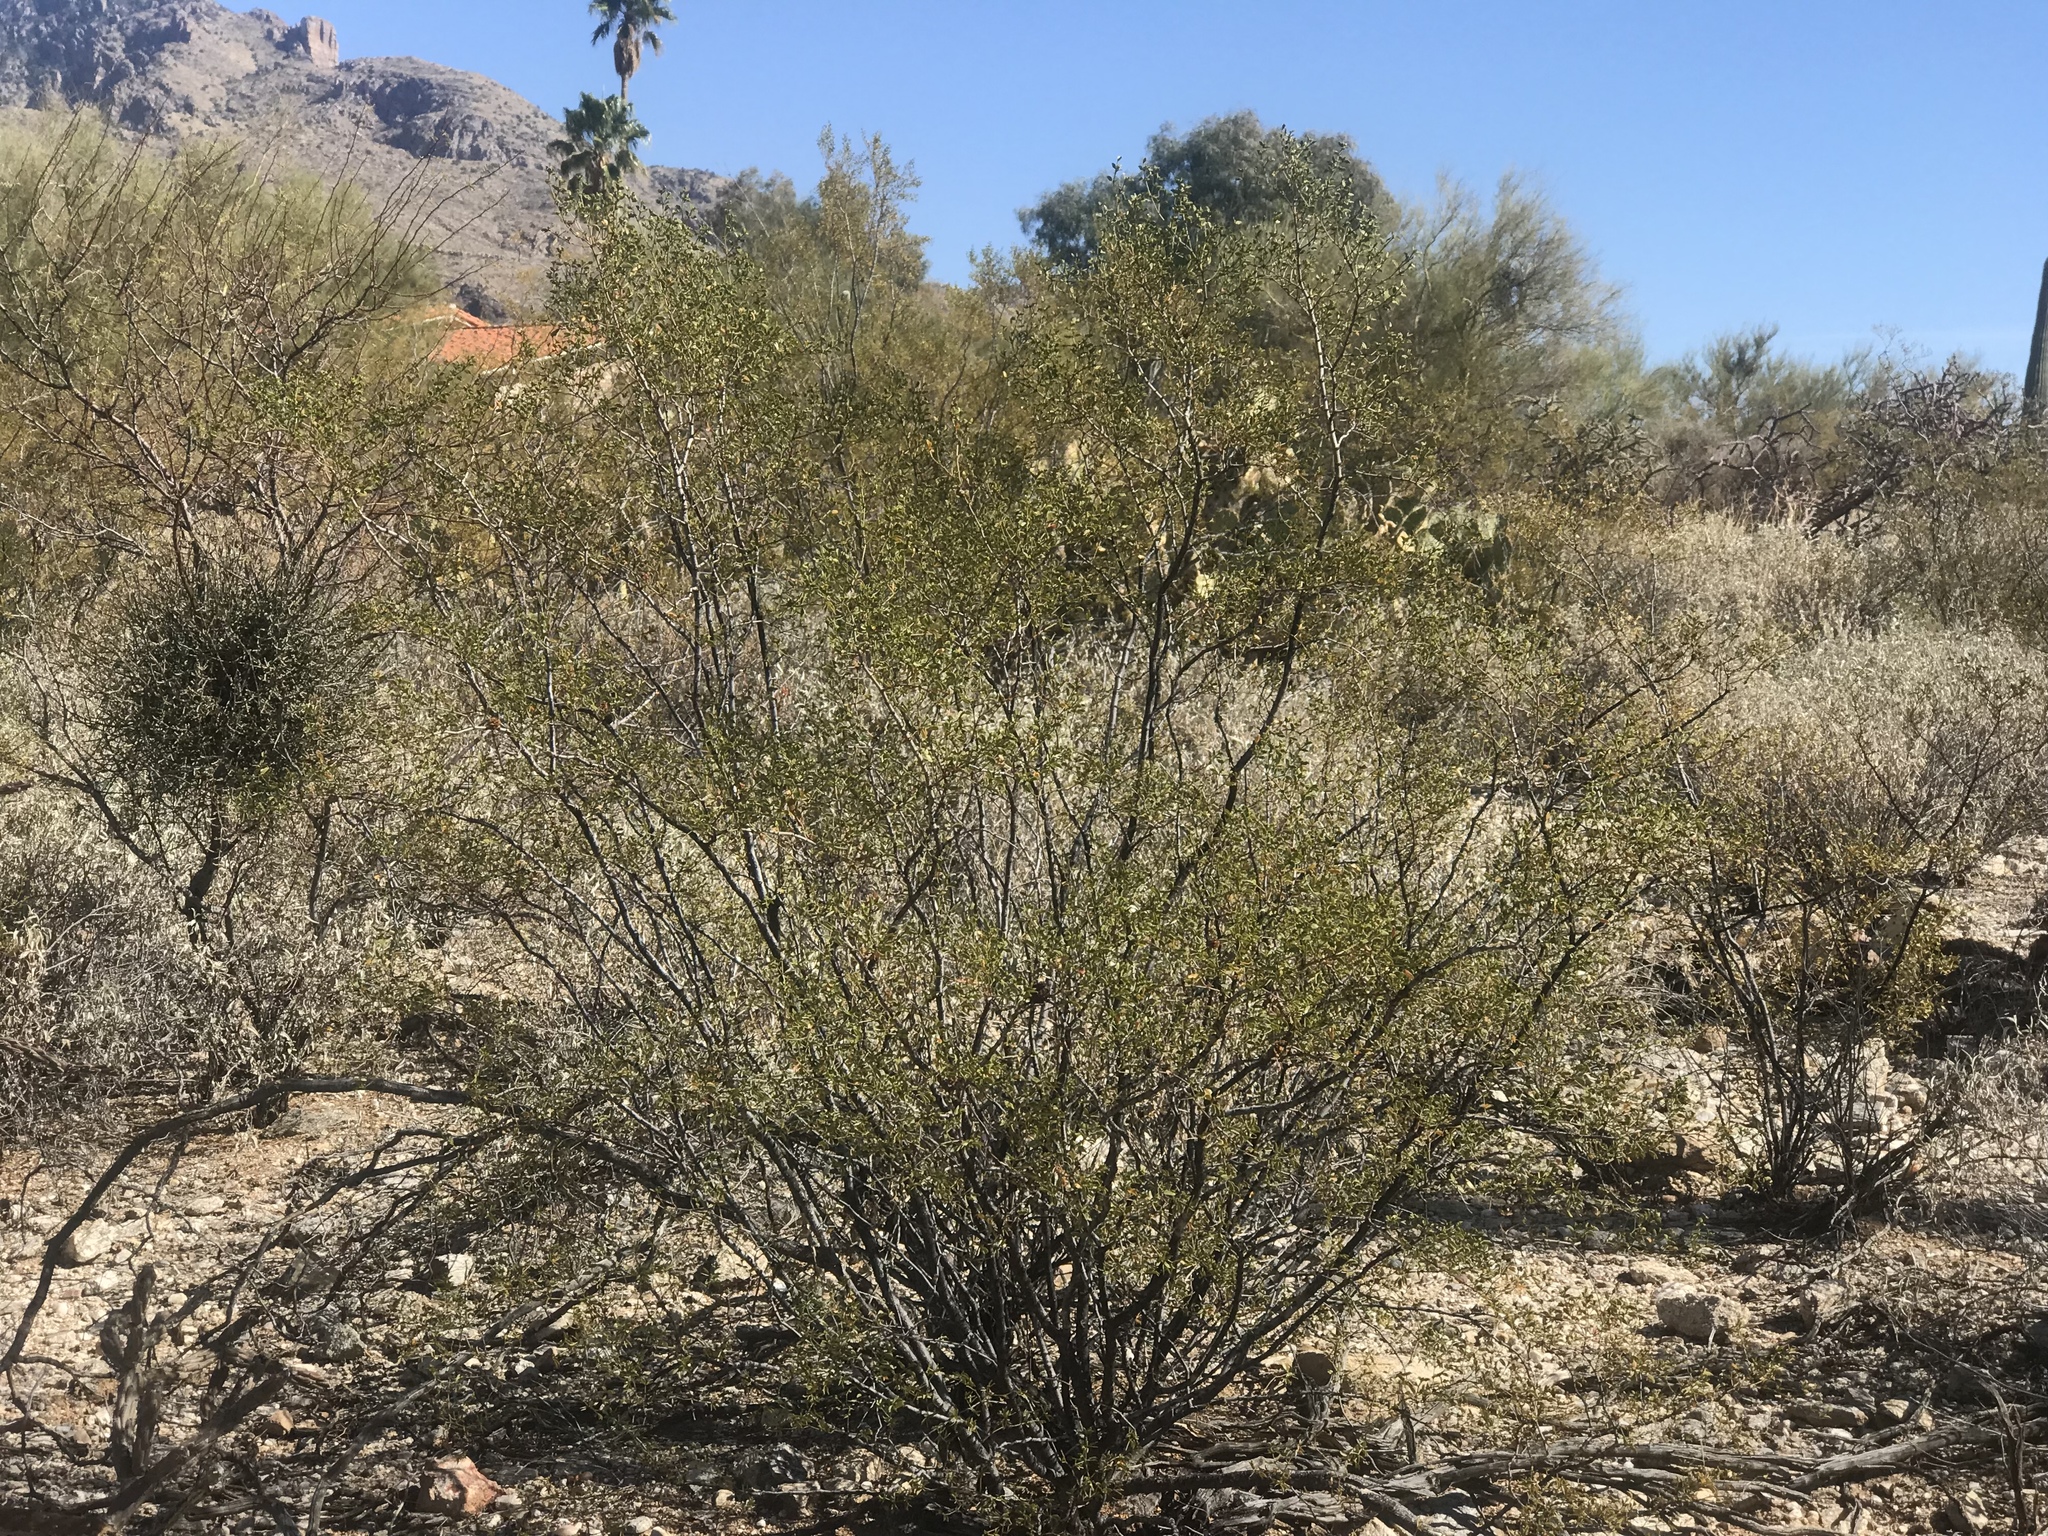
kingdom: Plantae
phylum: Tracheophyta
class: Magnoliopsida
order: Zygophyllales
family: Zygophyllaceae
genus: Larrea
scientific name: Larrea tridentata
